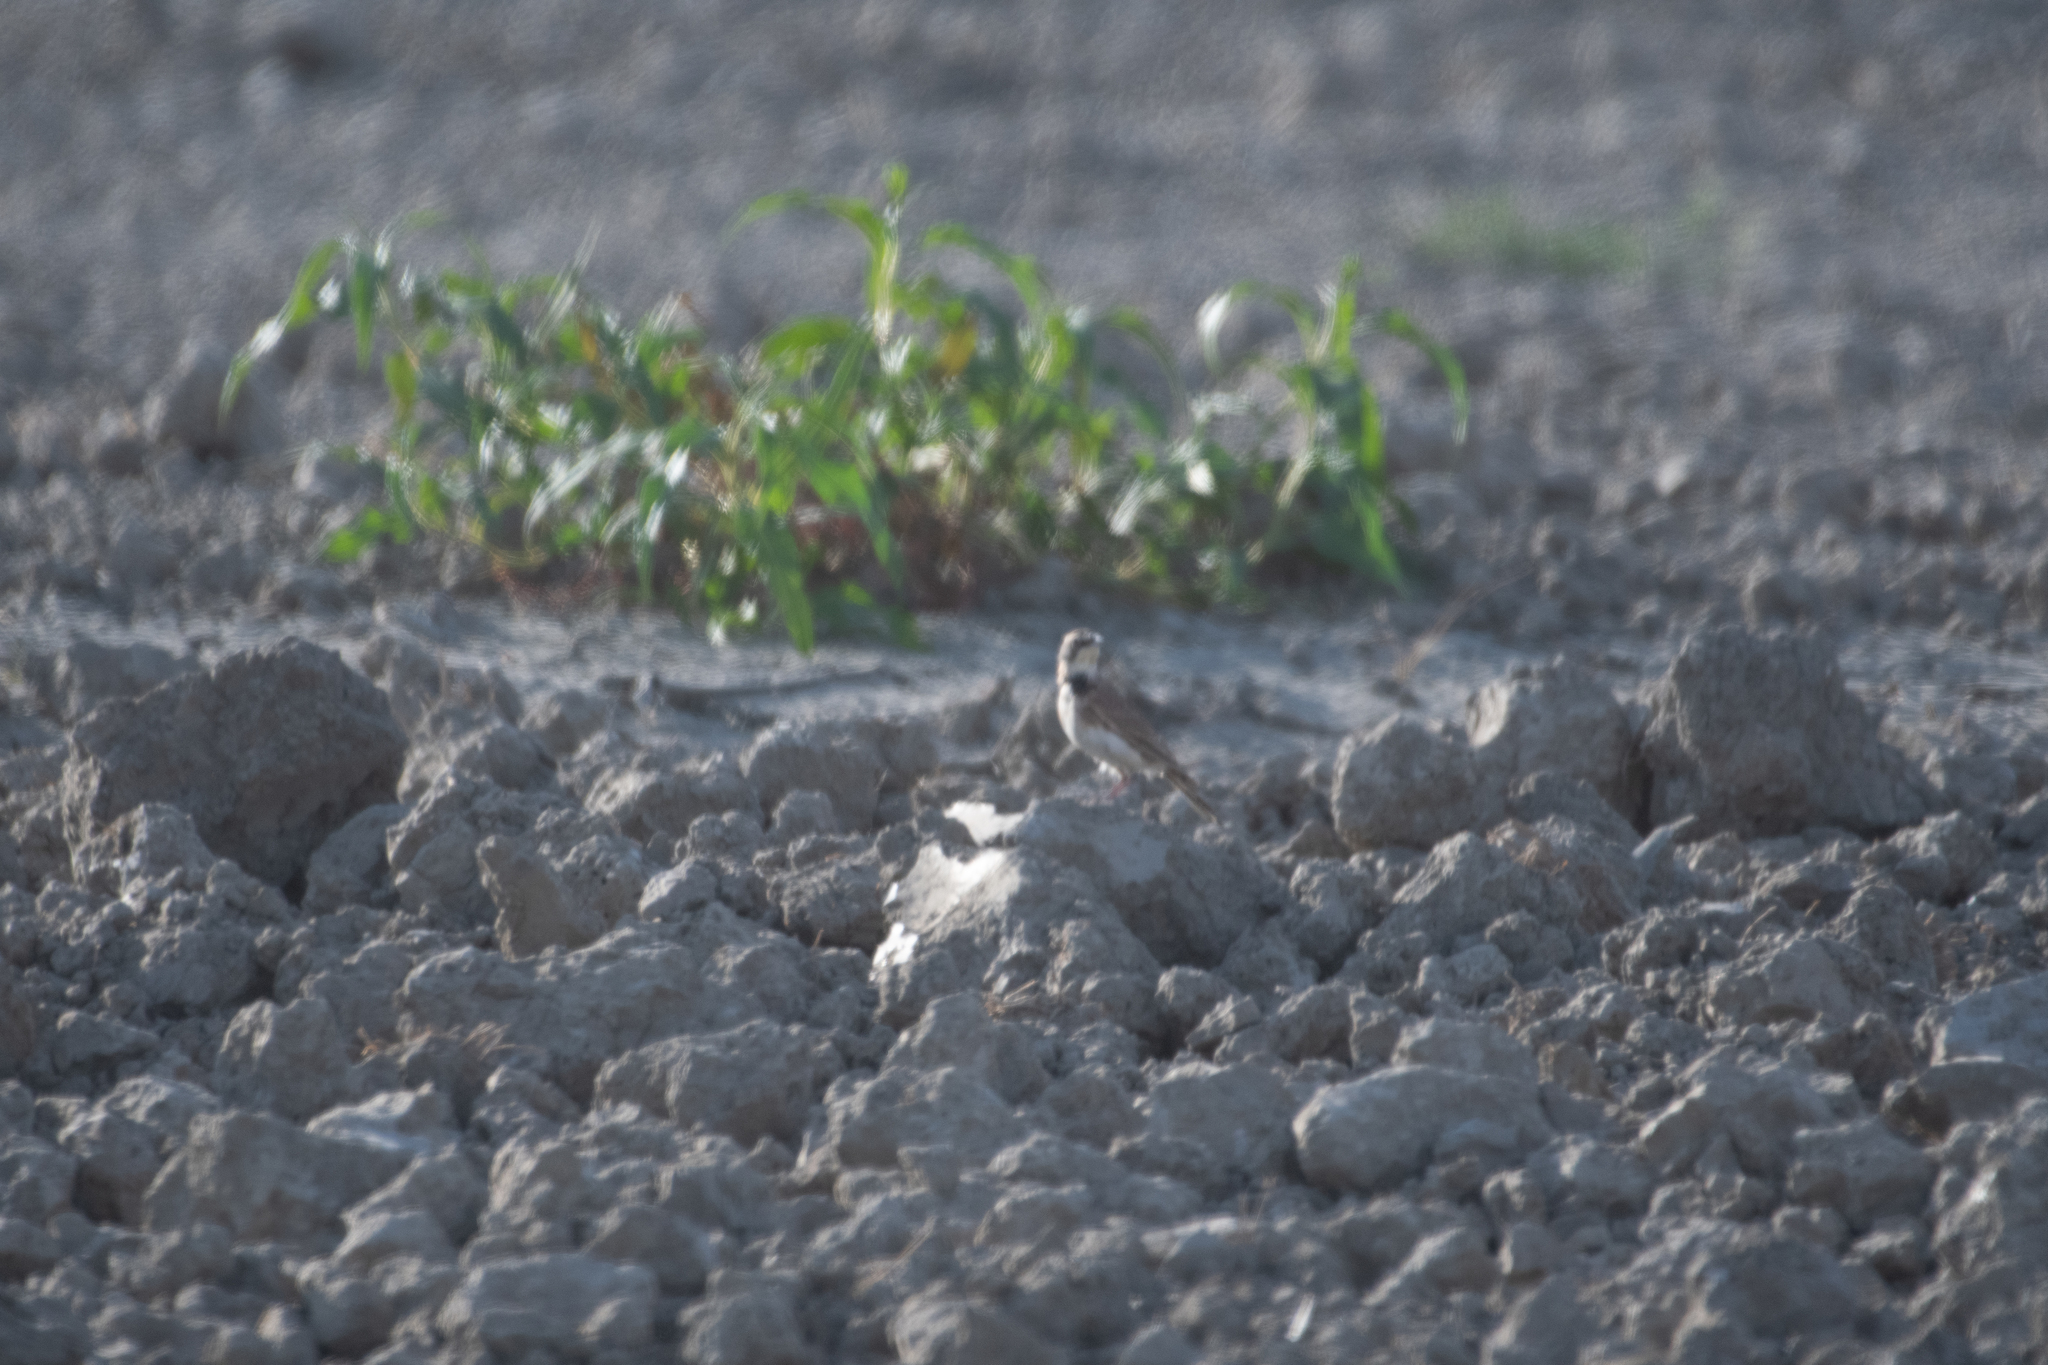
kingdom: Animalia
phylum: Chordata
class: Aves
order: Passeriformes
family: Alaudidae
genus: Eremophila
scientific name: Eremophila alpestris
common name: Horned lark
